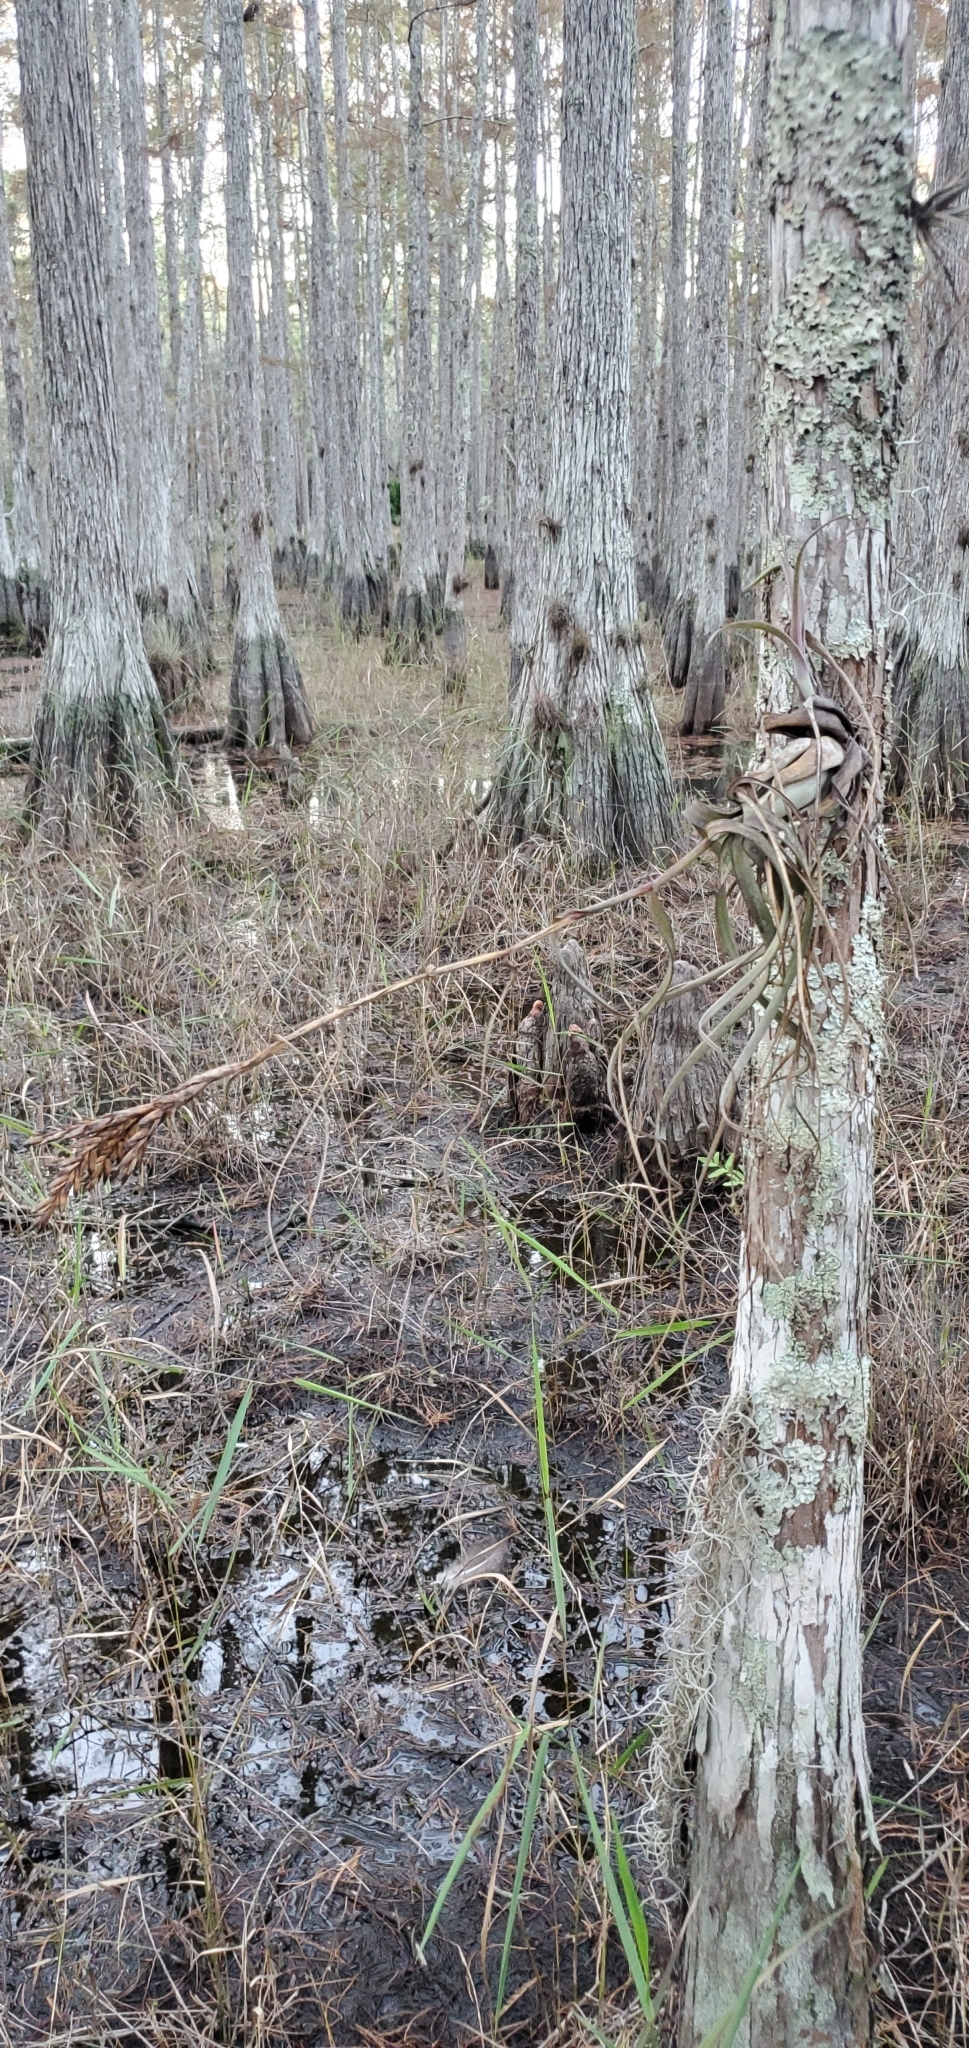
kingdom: Plantae
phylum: Tracheophyta
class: Liliopsida
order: Poales
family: Bromeliaceae
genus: Tillandsia
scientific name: Tillandsia balbisiana
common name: Northern needleleaf
